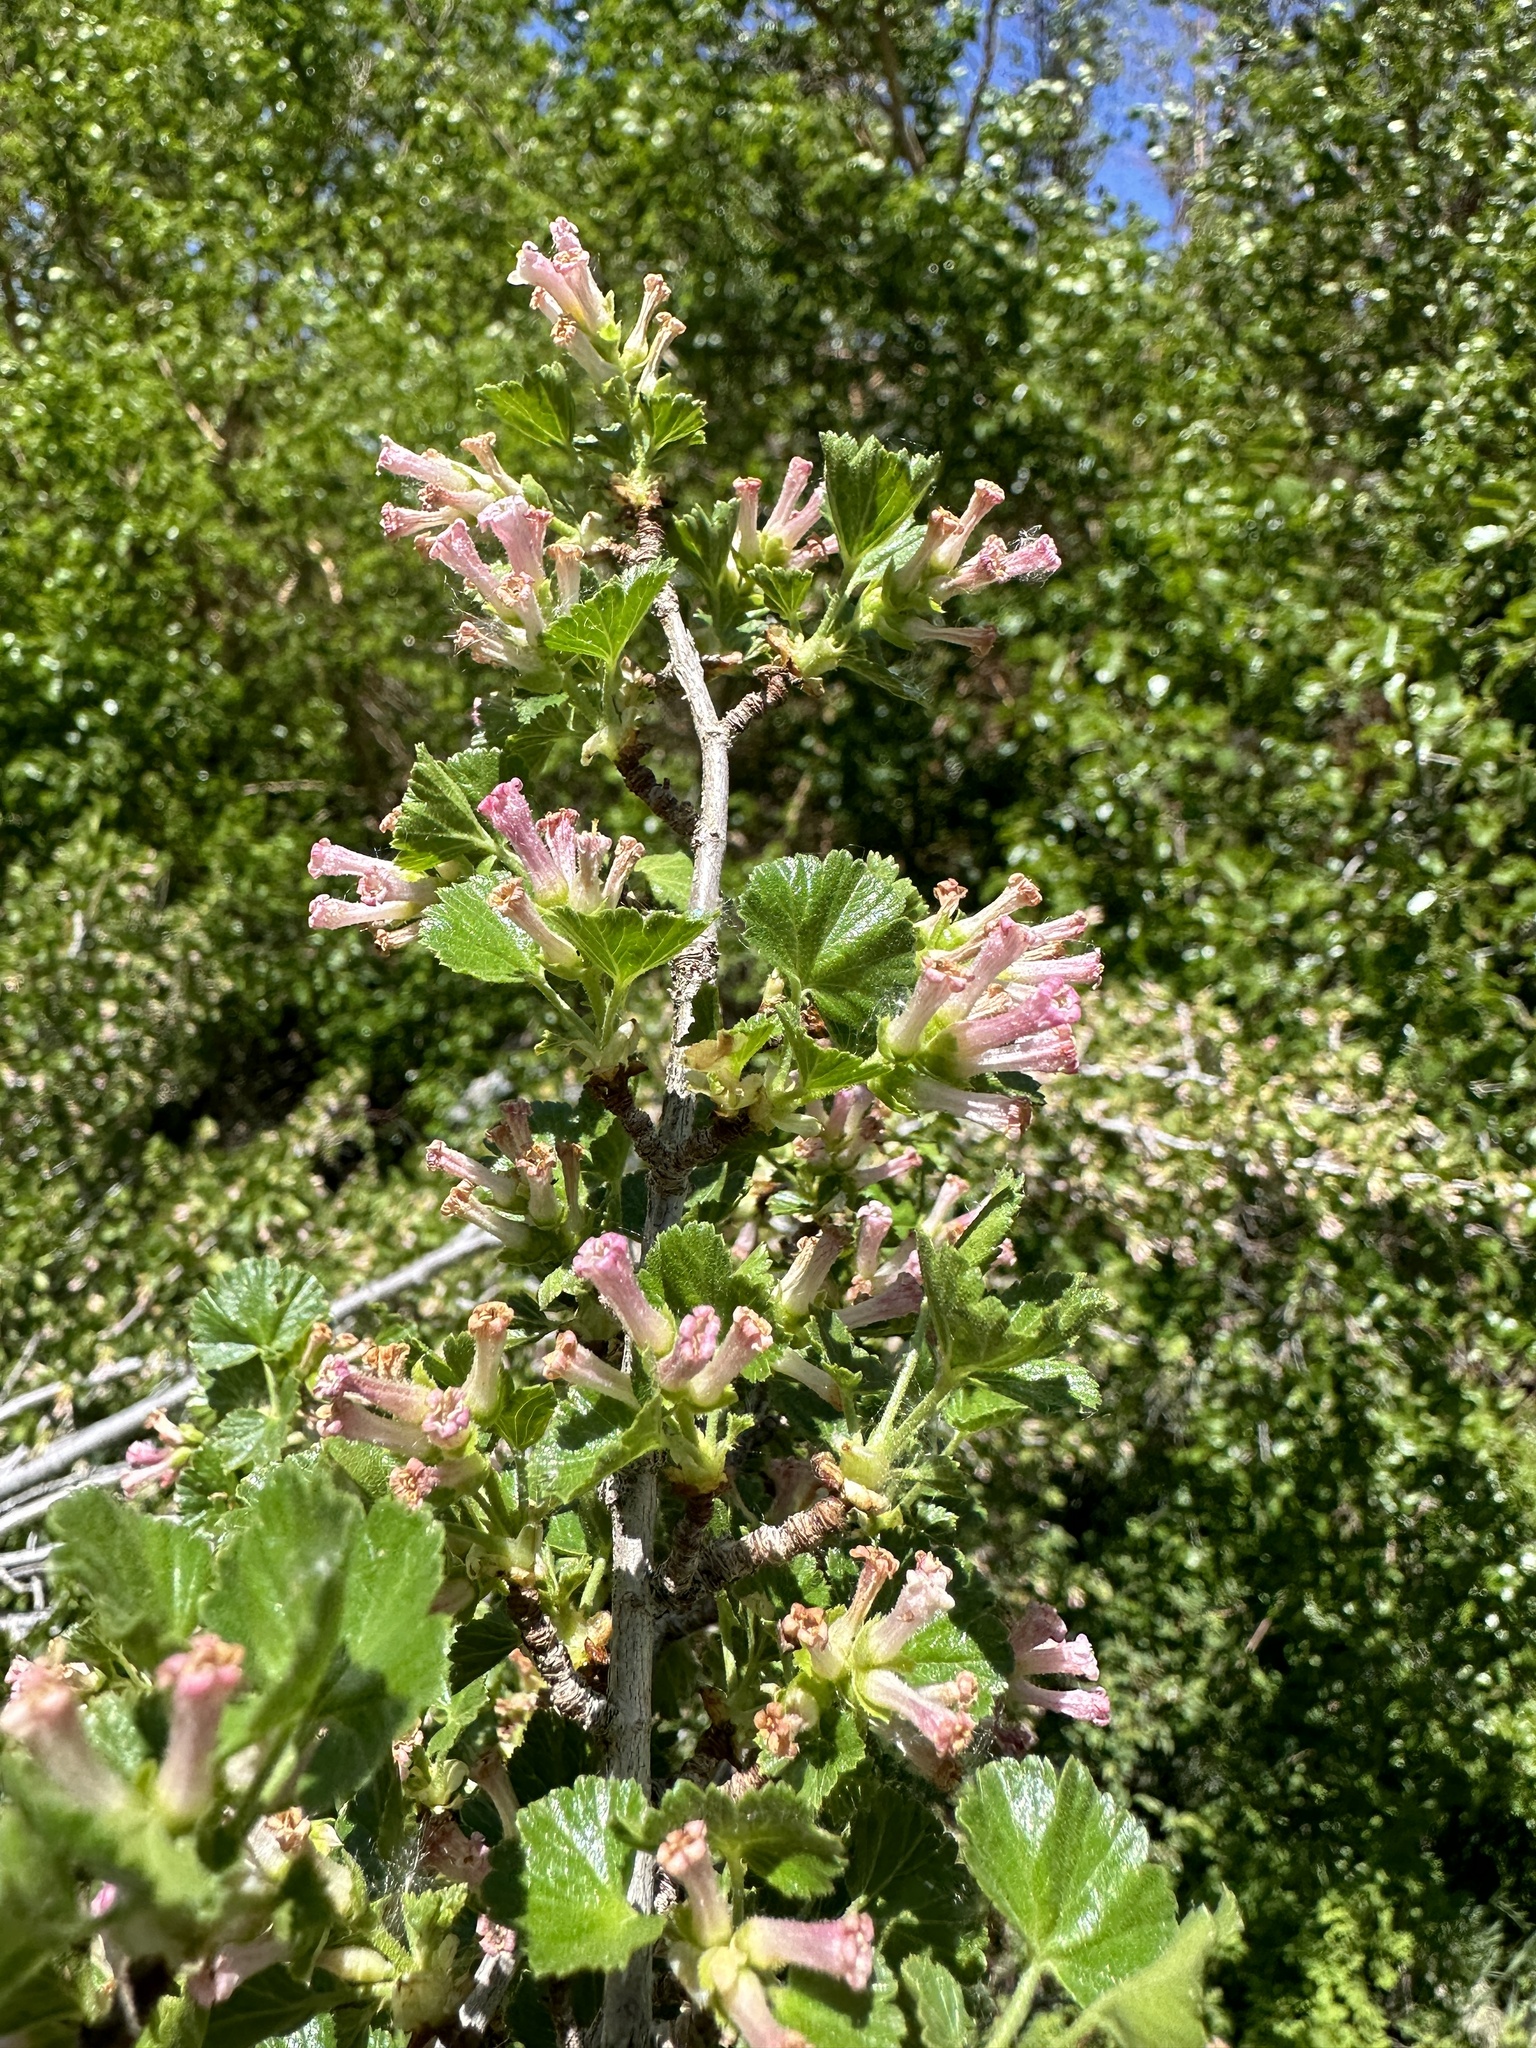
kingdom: Plantae
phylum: Tracheophyta
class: Magnoliopsida
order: Saxifragales
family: Grossulariaceae
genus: Ribes
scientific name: Ribes cereum
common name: Wax currant
